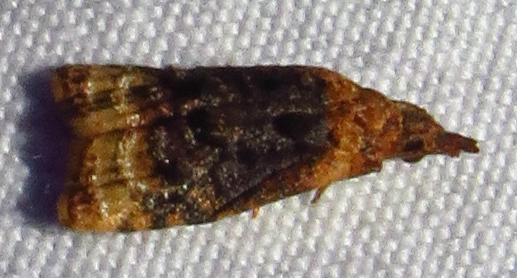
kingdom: Animalia
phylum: Arthropoda
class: Insecta
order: Lepidoptera
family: Tortricidae
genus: Platynota
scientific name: Platynota flavedana
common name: Black-shaded platynota moth
